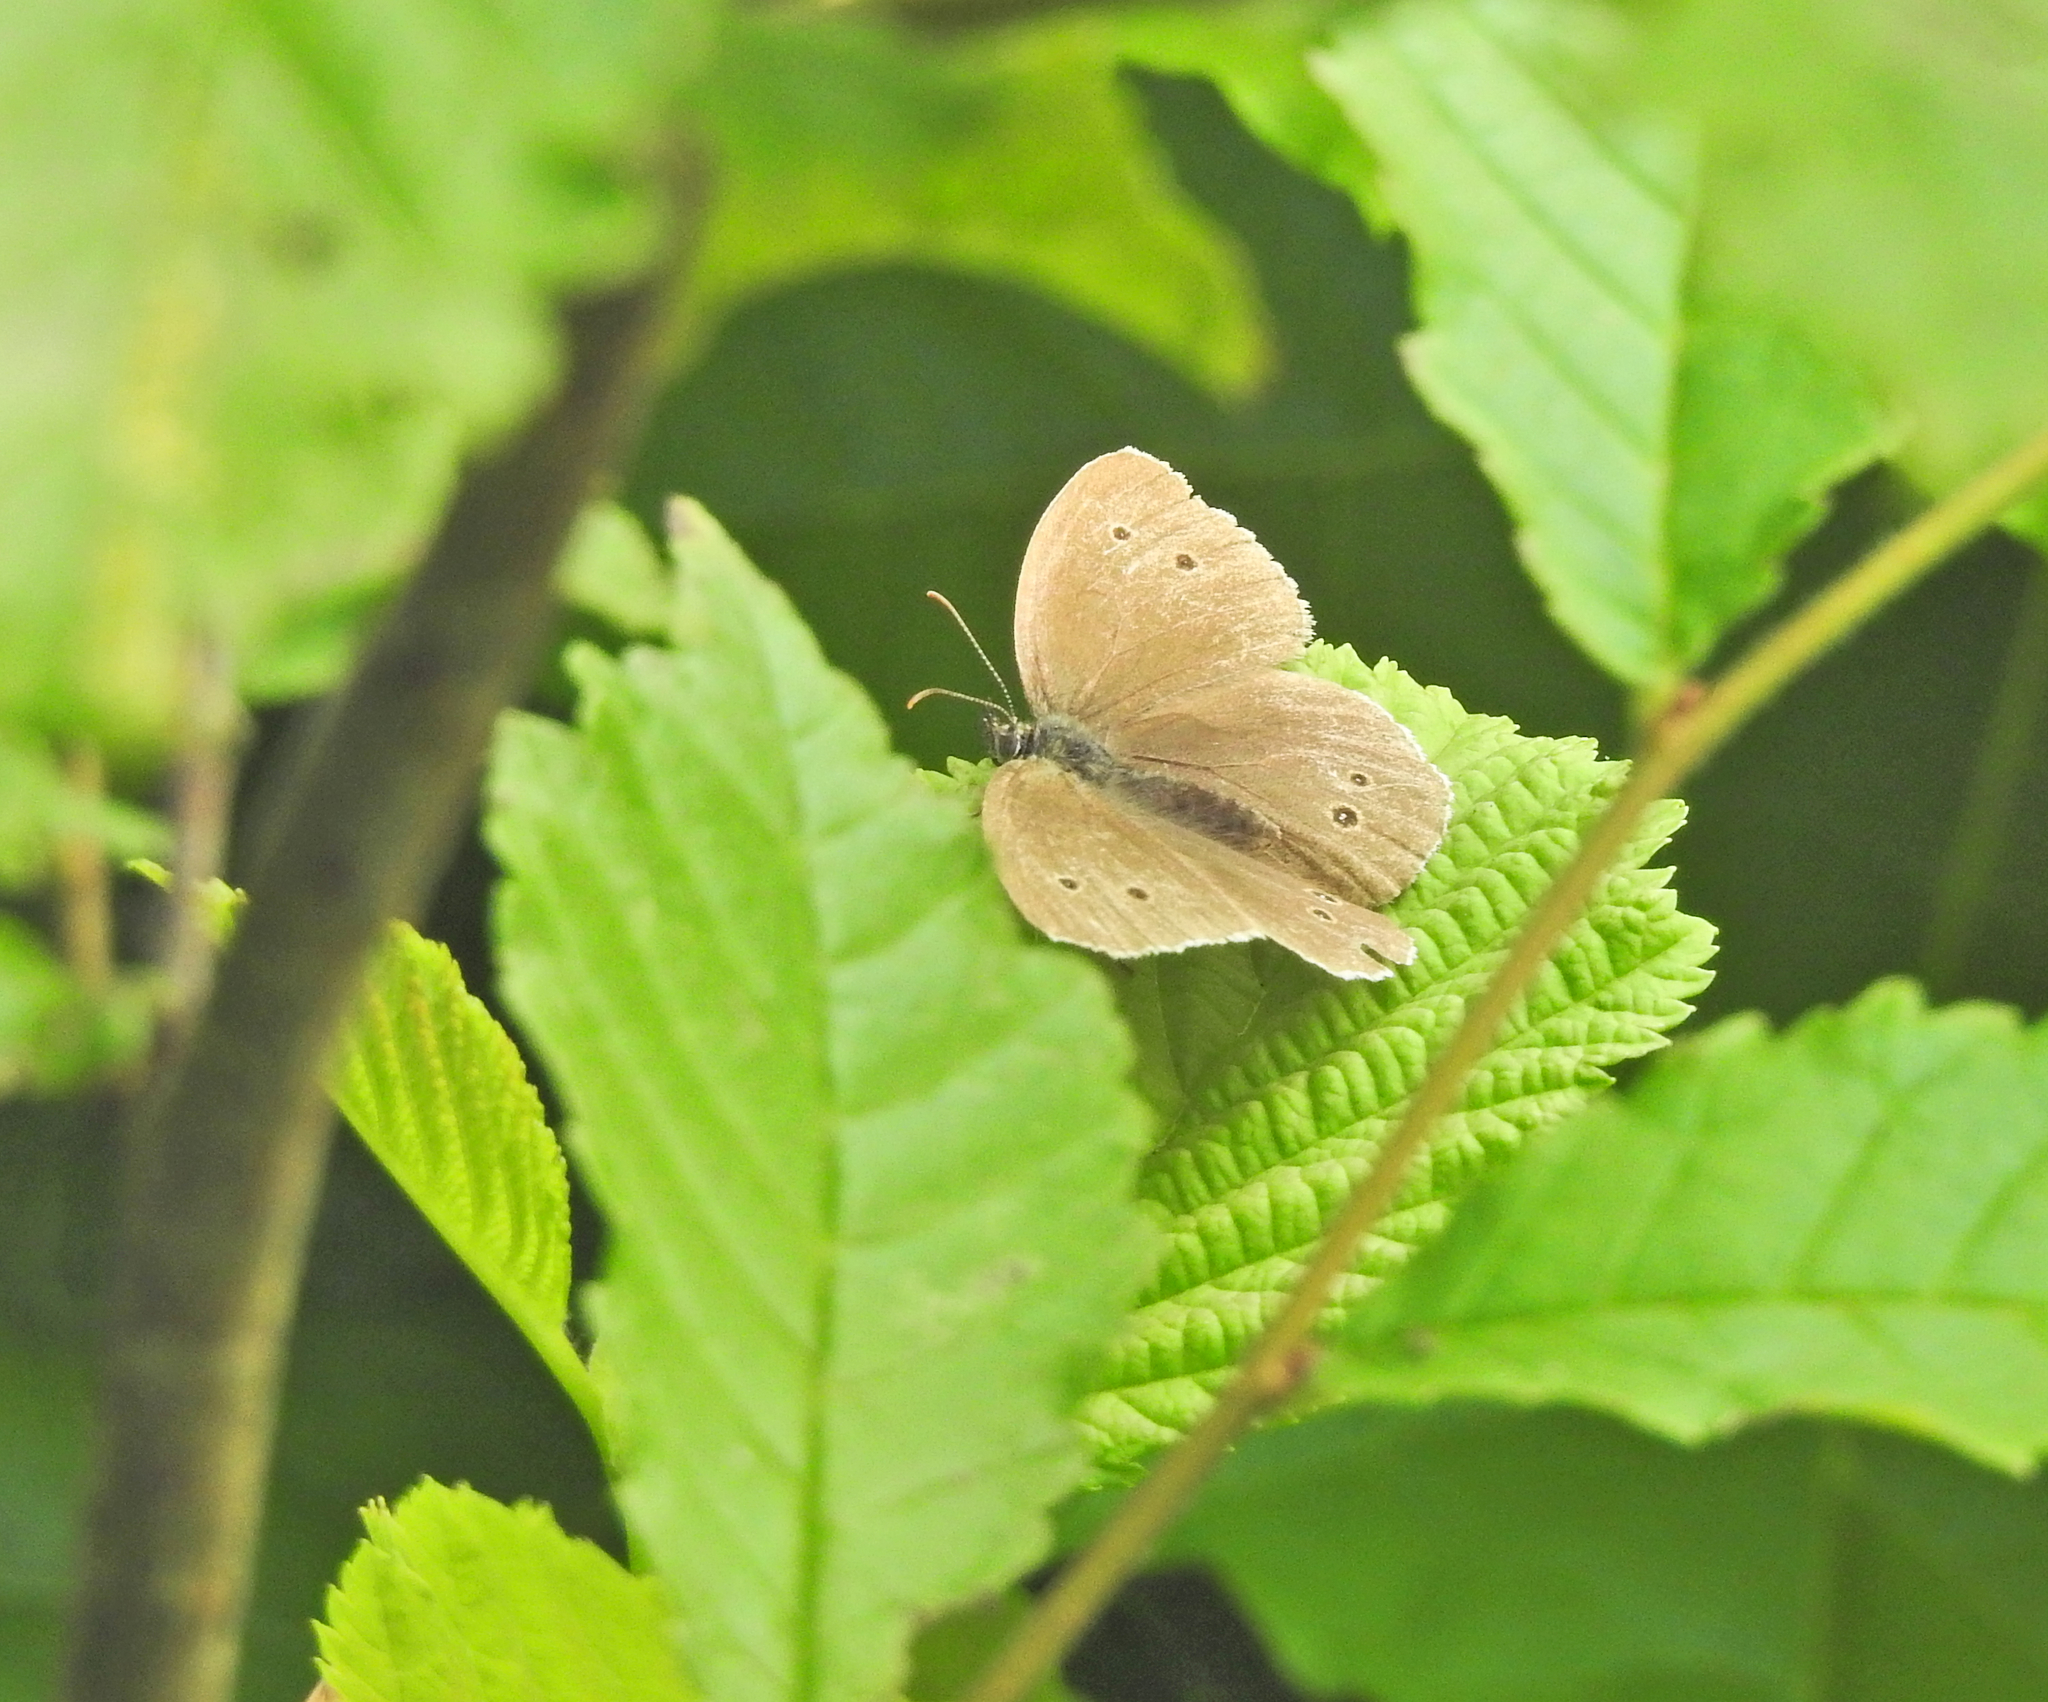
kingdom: Animalia
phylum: Arthropoda
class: Insecta
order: Lepidoptera
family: Nymphalidae
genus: Aphantopus
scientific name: Aphantopus hyperantus
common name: Ringlet
